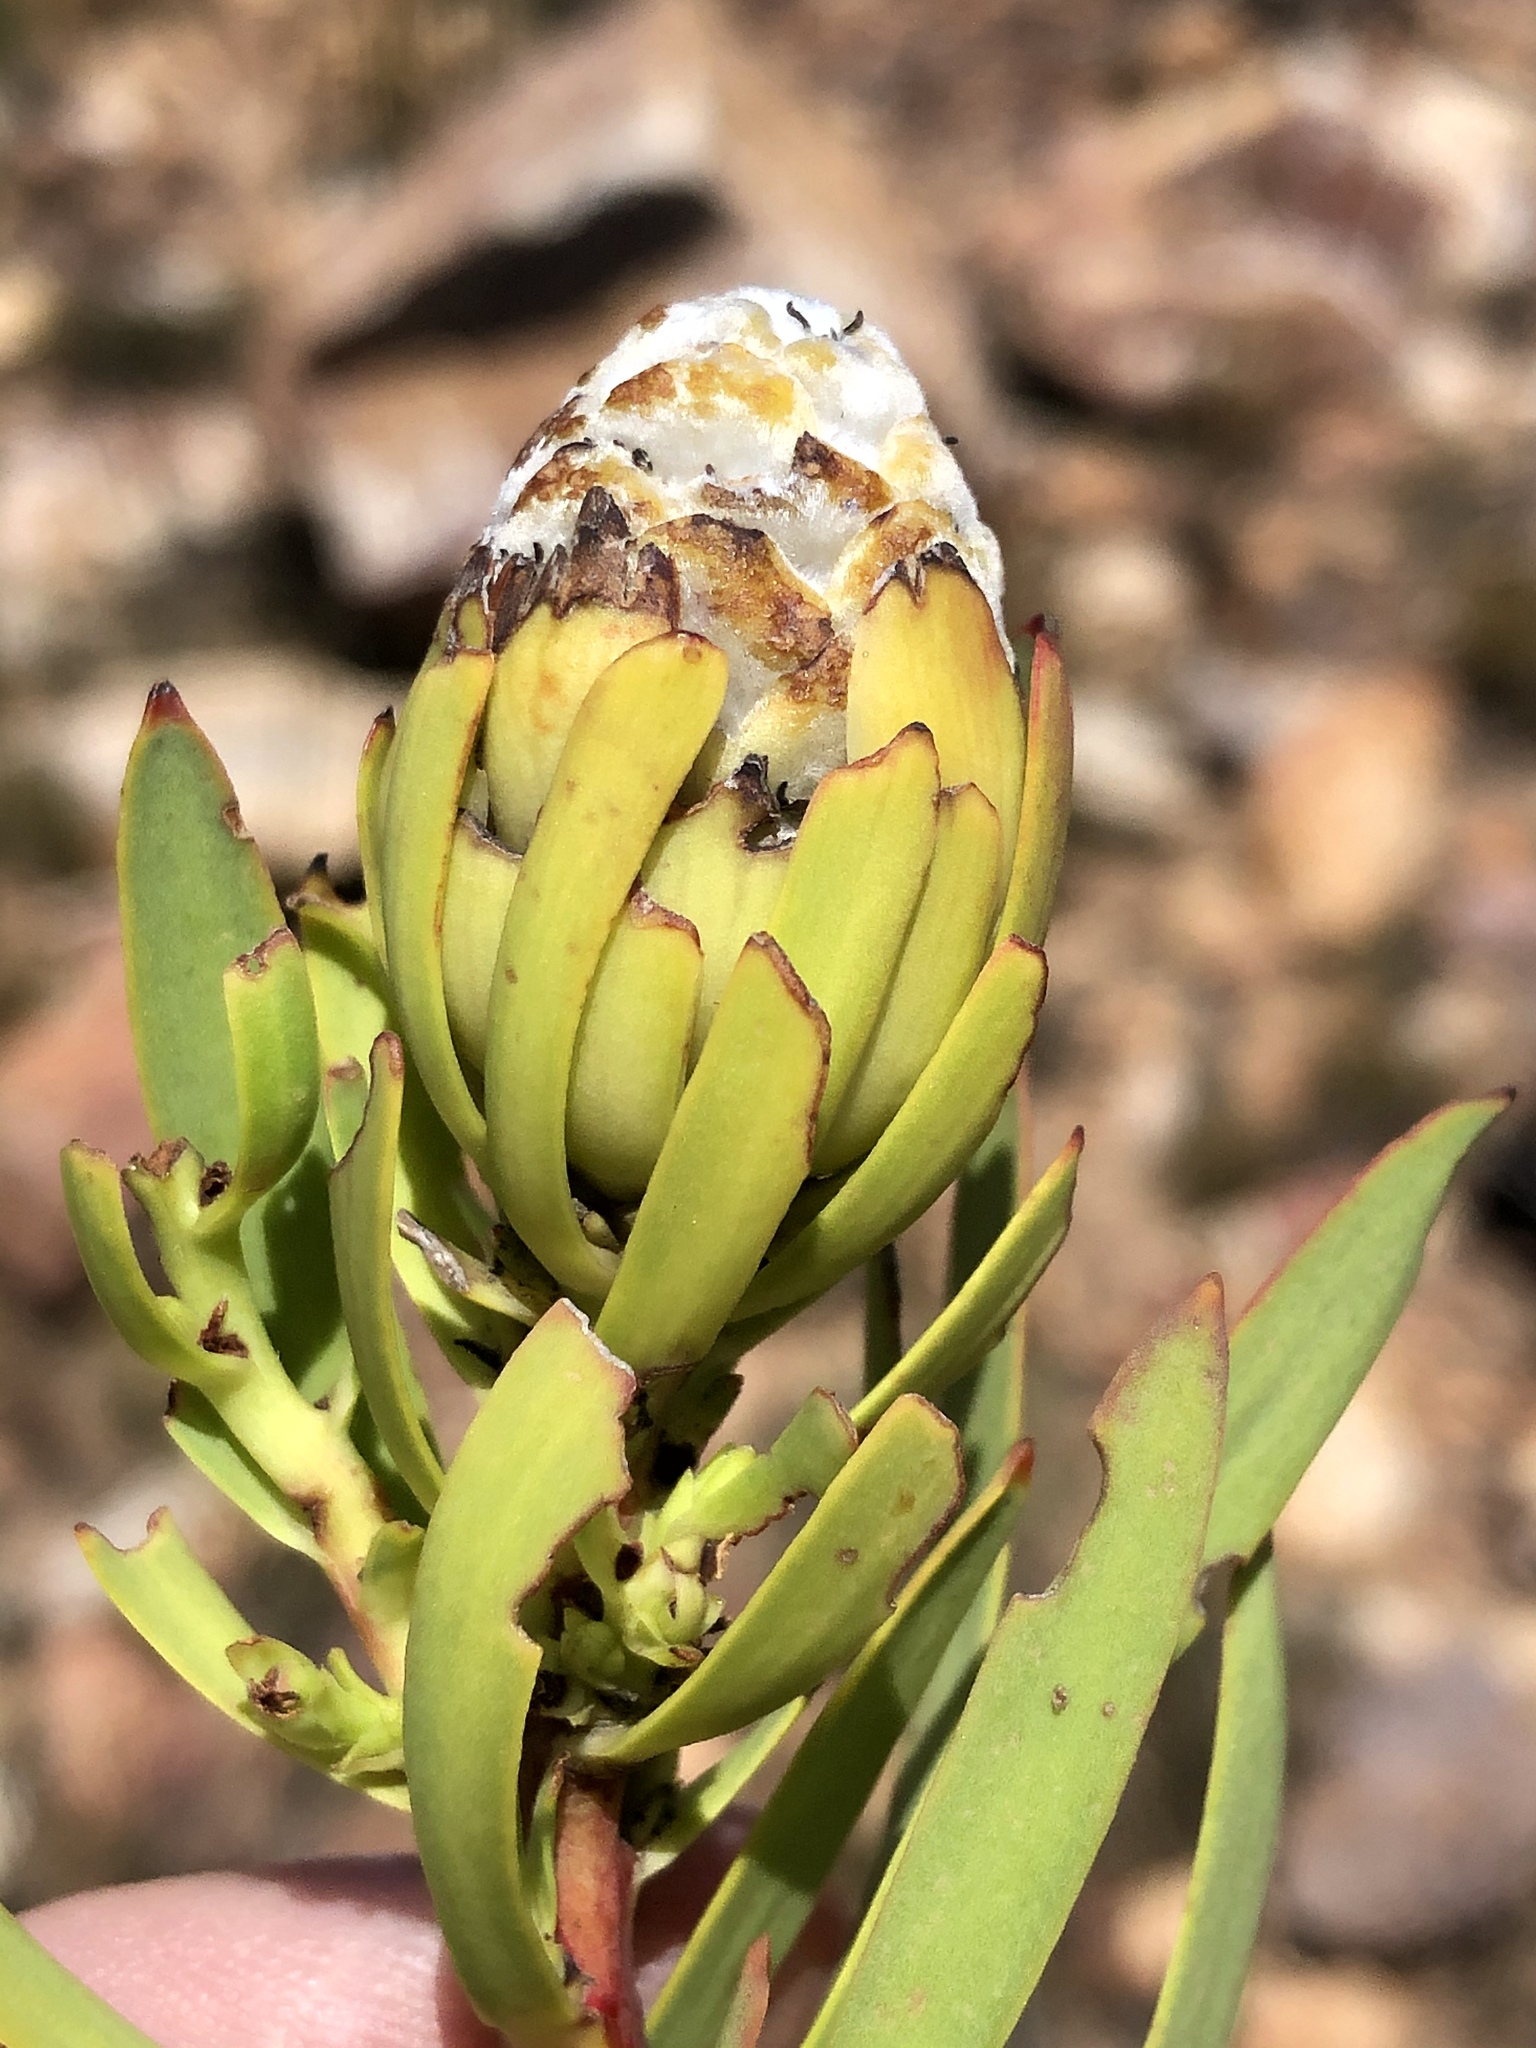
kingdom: Plantae
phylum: Tracheophyta
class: Magnoliopsida
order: Proteales
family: Proteaceae
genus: Leucadendron
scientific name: Leucadendron salignum
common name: Common sunshine conebush
